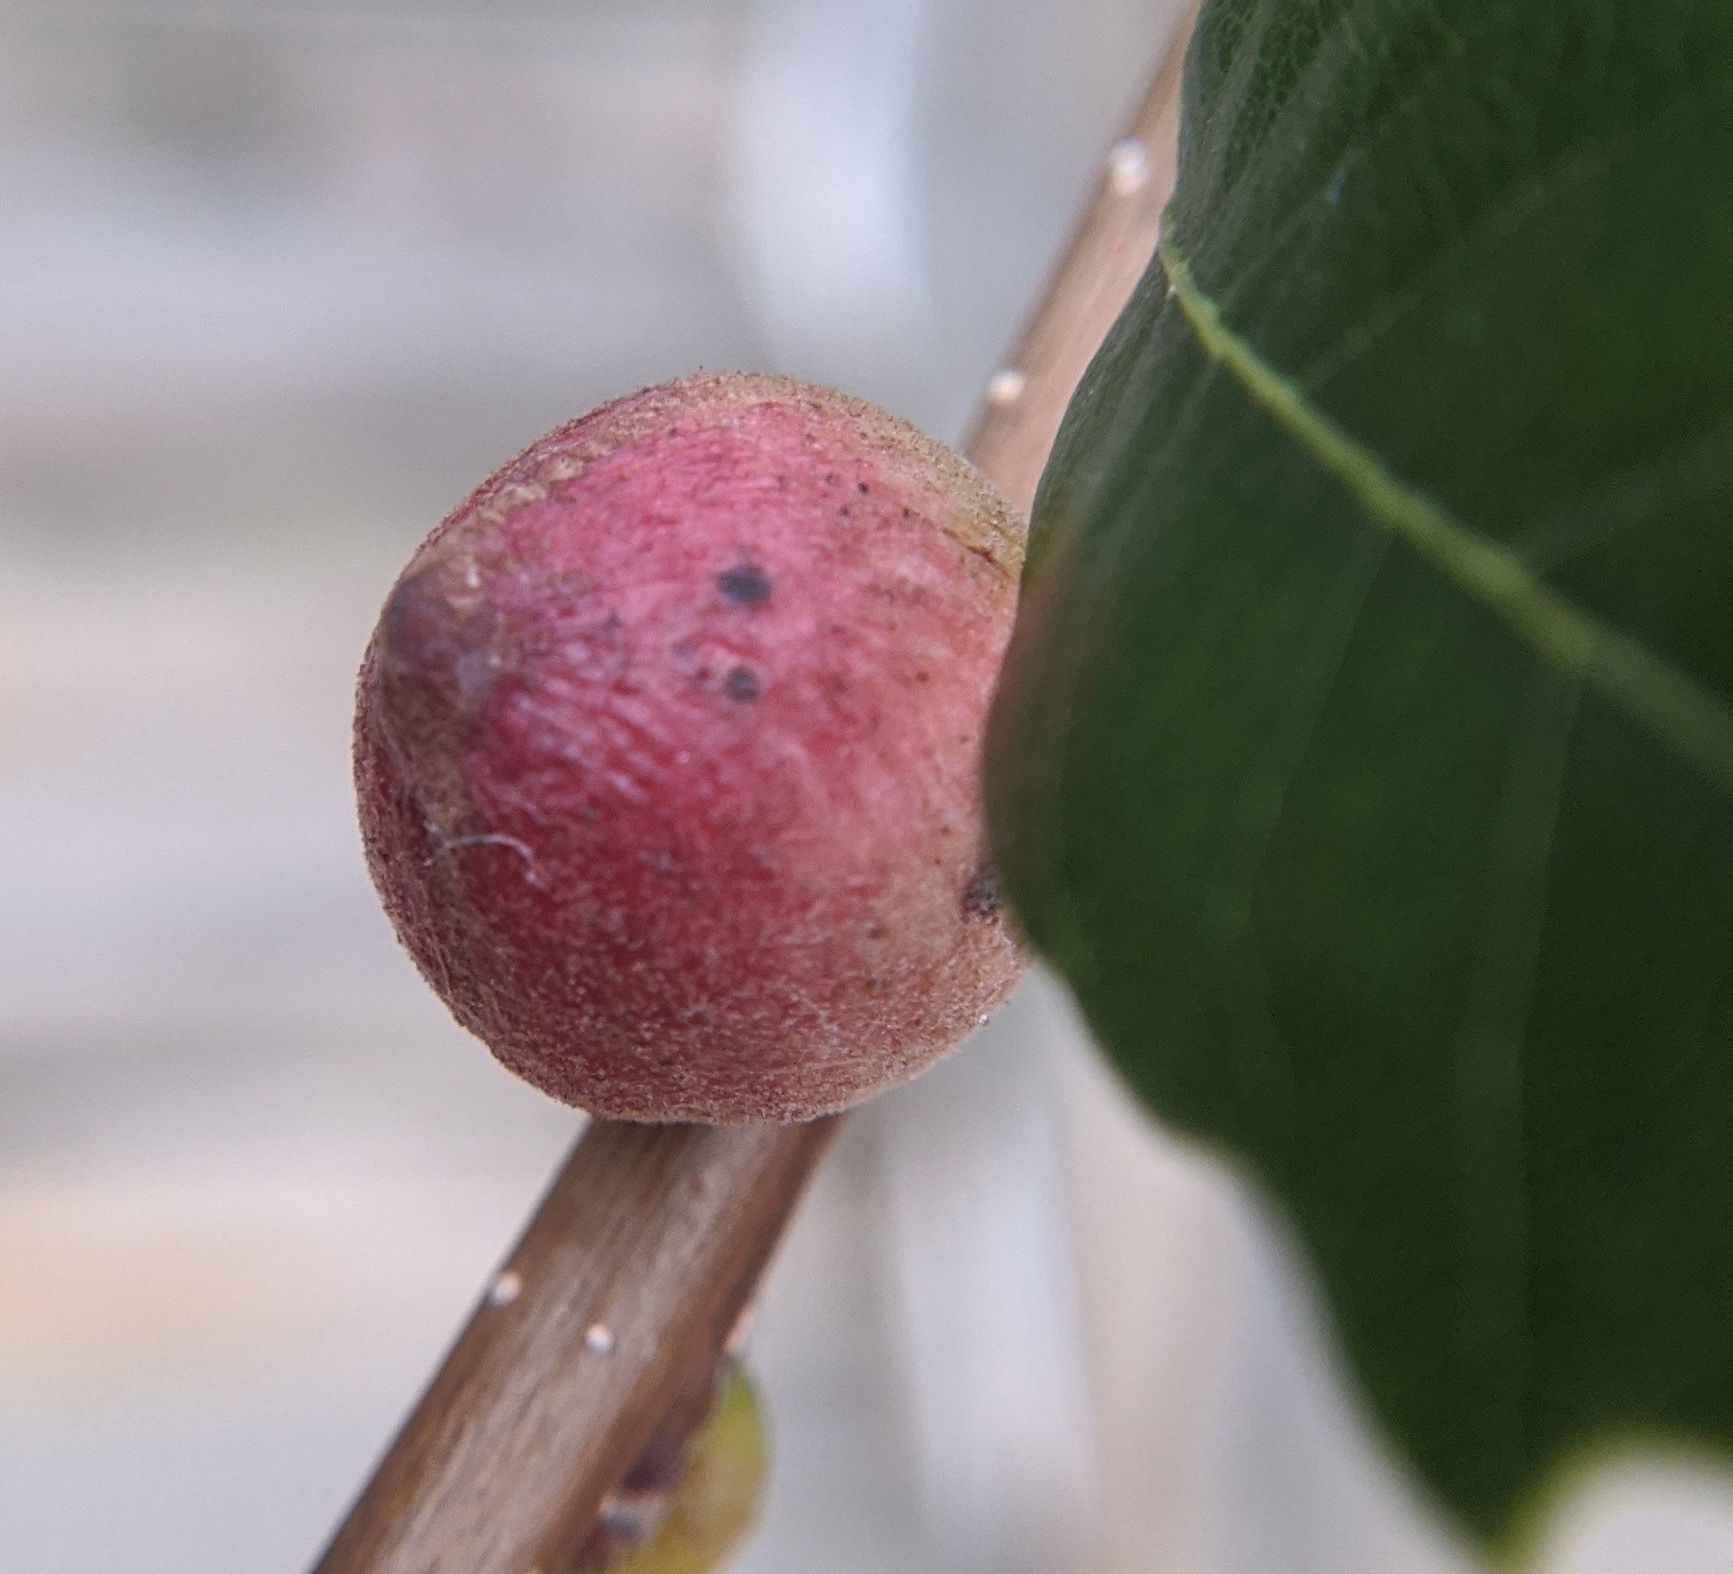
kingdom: Animalia
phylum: Arthropoda
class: Insecta
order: Hymenoptera
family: Cynipidae
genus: Disholcaspis
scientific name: Disholcaspis
